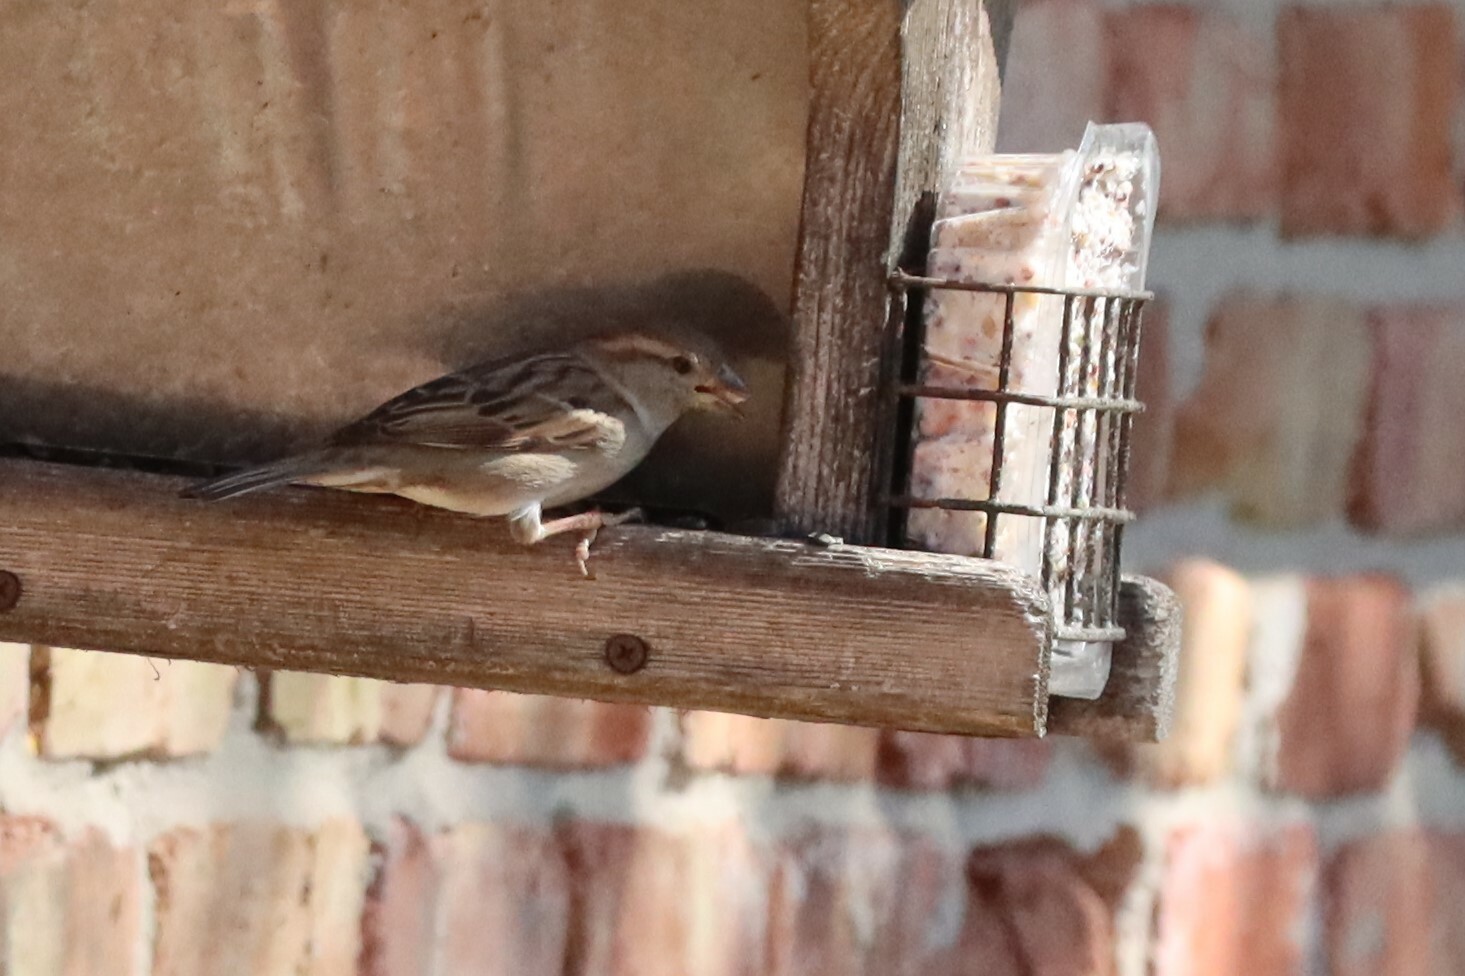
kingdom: Animalia
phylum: Chordata
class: Aves
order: Passeriformes
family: Passeridae
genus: Passer
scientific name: Passer domesticus
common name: House sparrow
